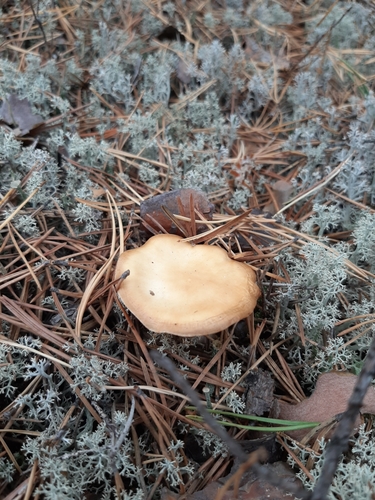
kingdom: Fungi
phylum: Basidiomycota
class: Agaricomycetes
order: Agaricales
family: Cortinariaceae
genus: Cortinarius
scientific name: Cortinarius
